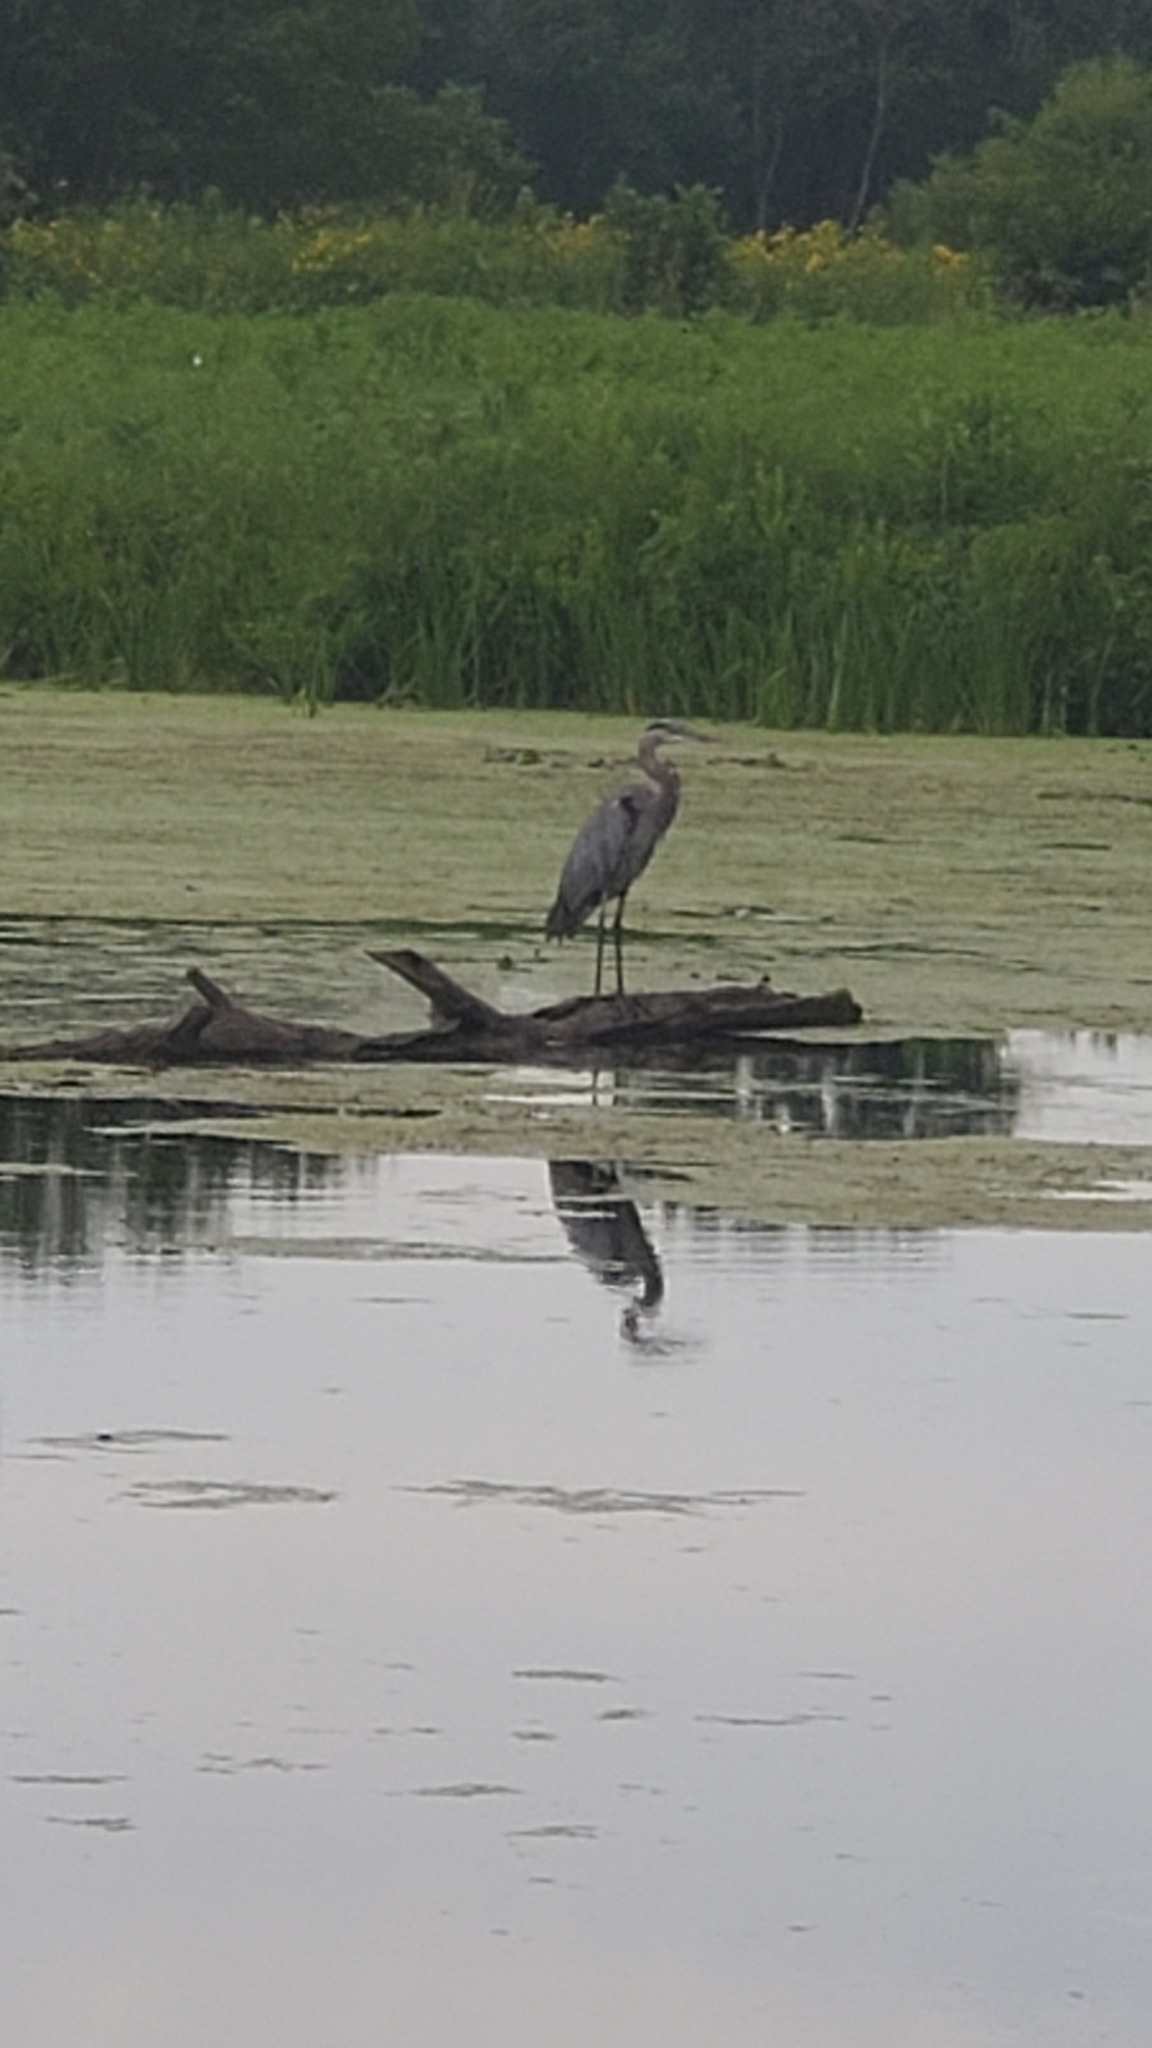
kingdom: Animalia
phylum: Chordata
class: Aves
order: Pelecaniformes
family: Ardeidae
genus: Ardea
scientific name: Ardea herodias
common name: Great blue heron
